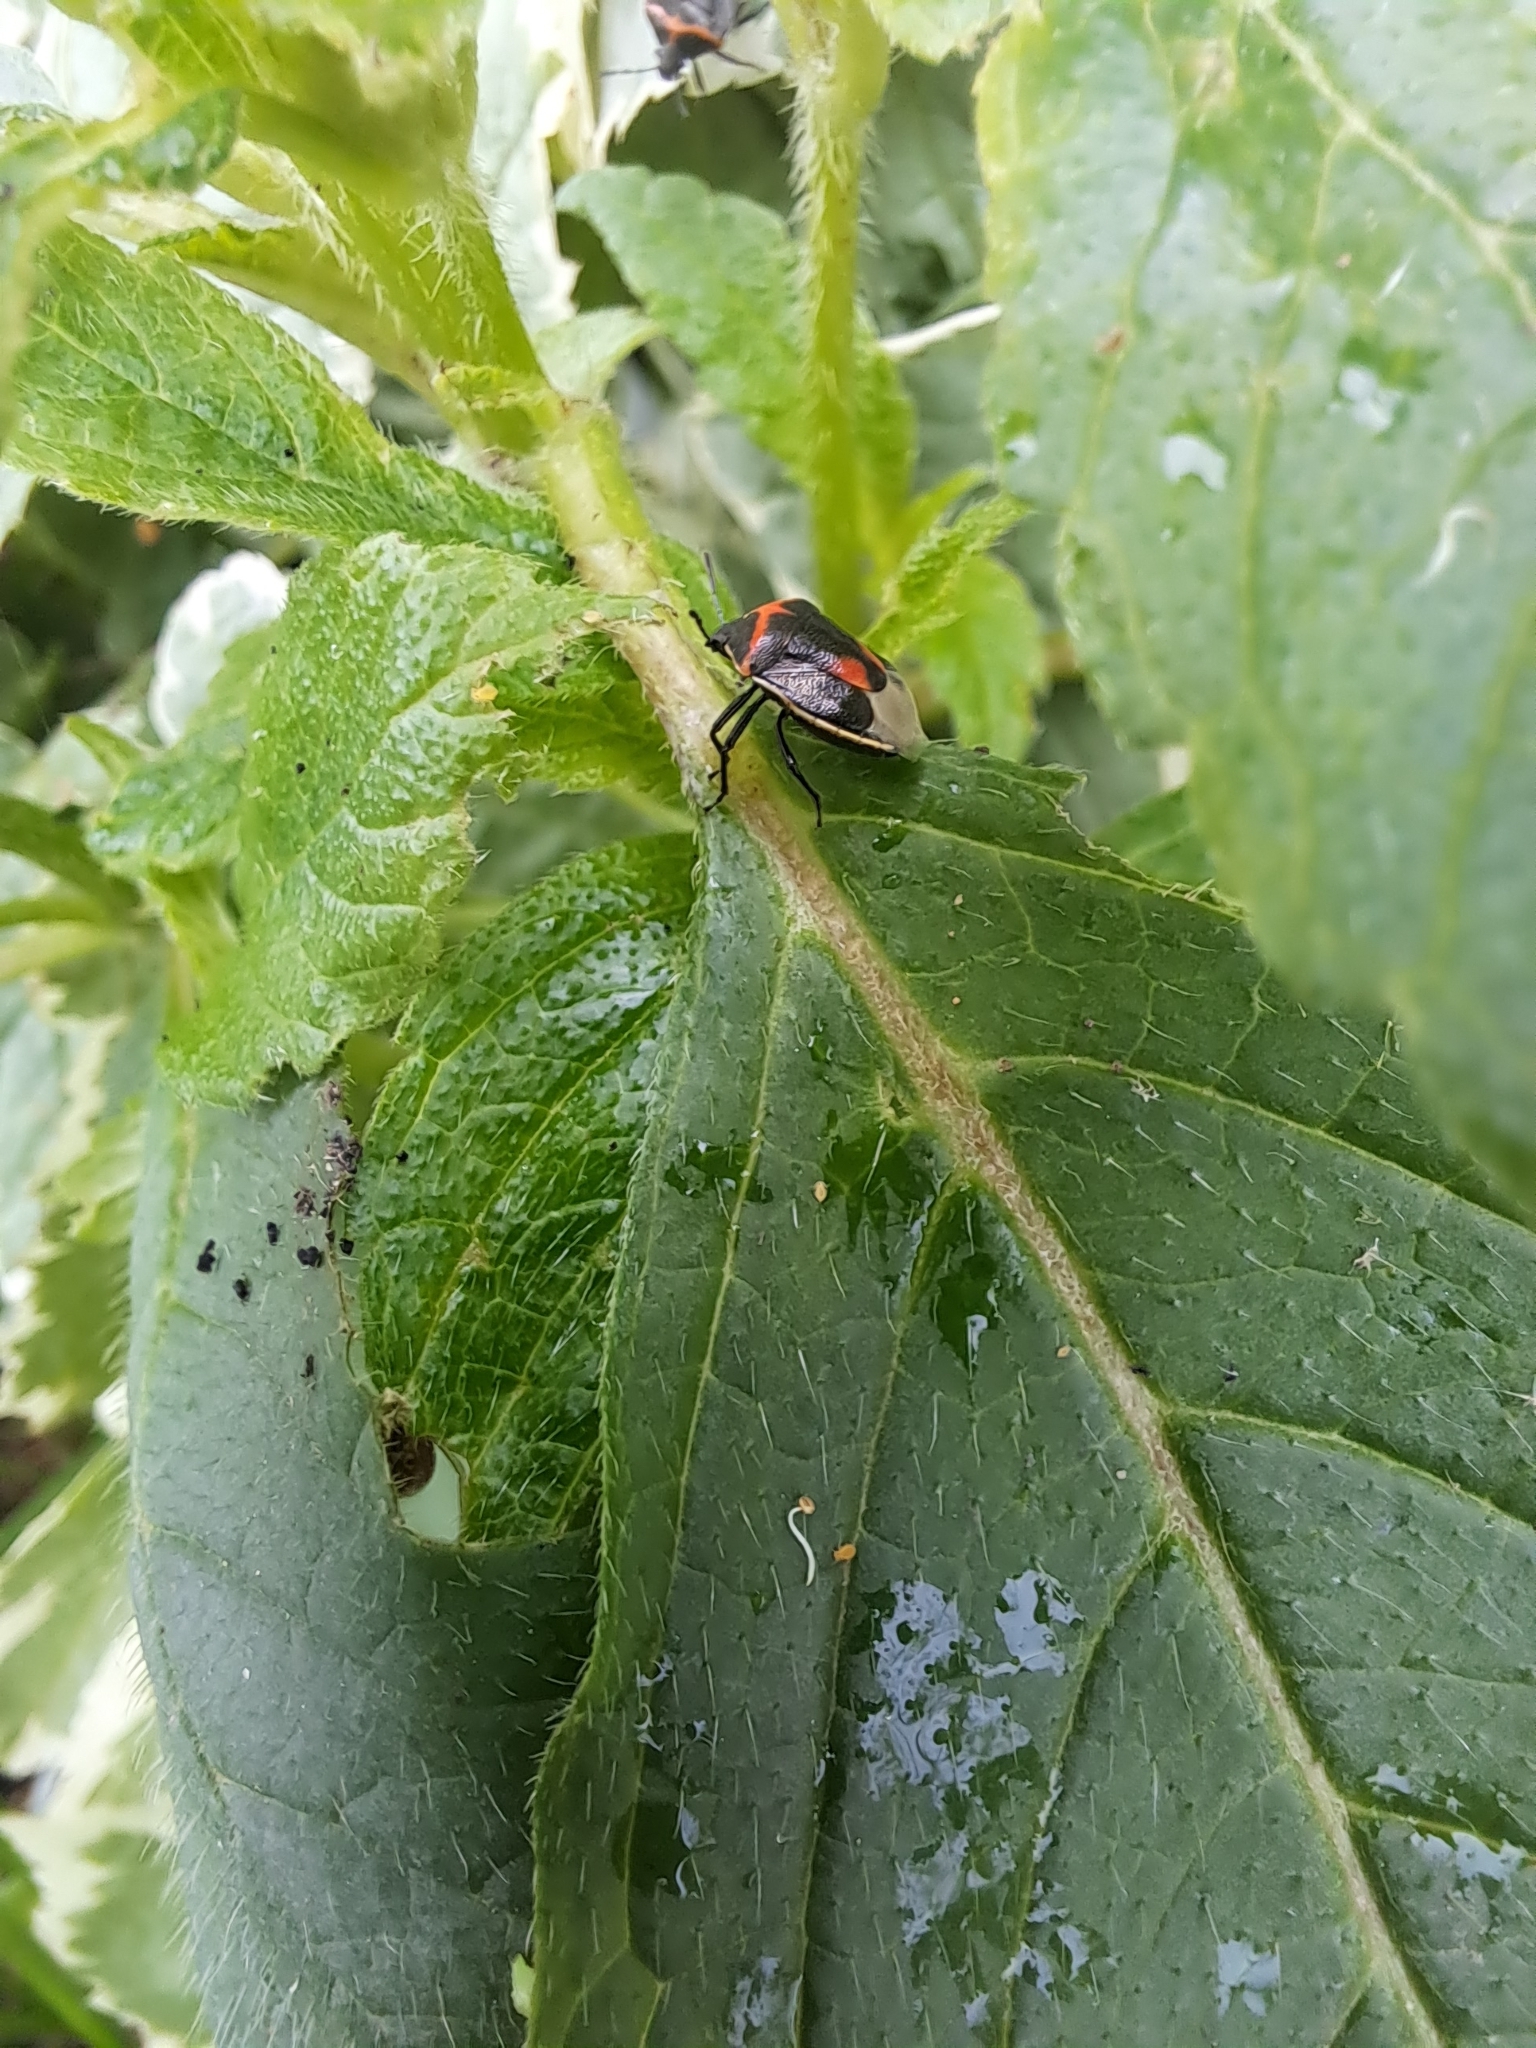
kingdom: Animalia
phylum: Arthropoda
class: Insecta
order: Hemiptera
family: Pentatomidae
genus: Cosmopepla
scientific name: Cosmopepla lintneriana
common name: Twice-stabbed stink bug
